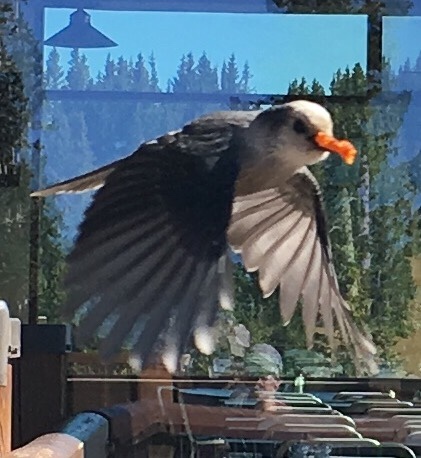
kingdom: Animalia
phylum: Chordata
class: Aves
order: Passeriformes
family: Corvidae
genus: Perisoreus
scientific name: Perisoreus canadensis
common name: Gray jay
